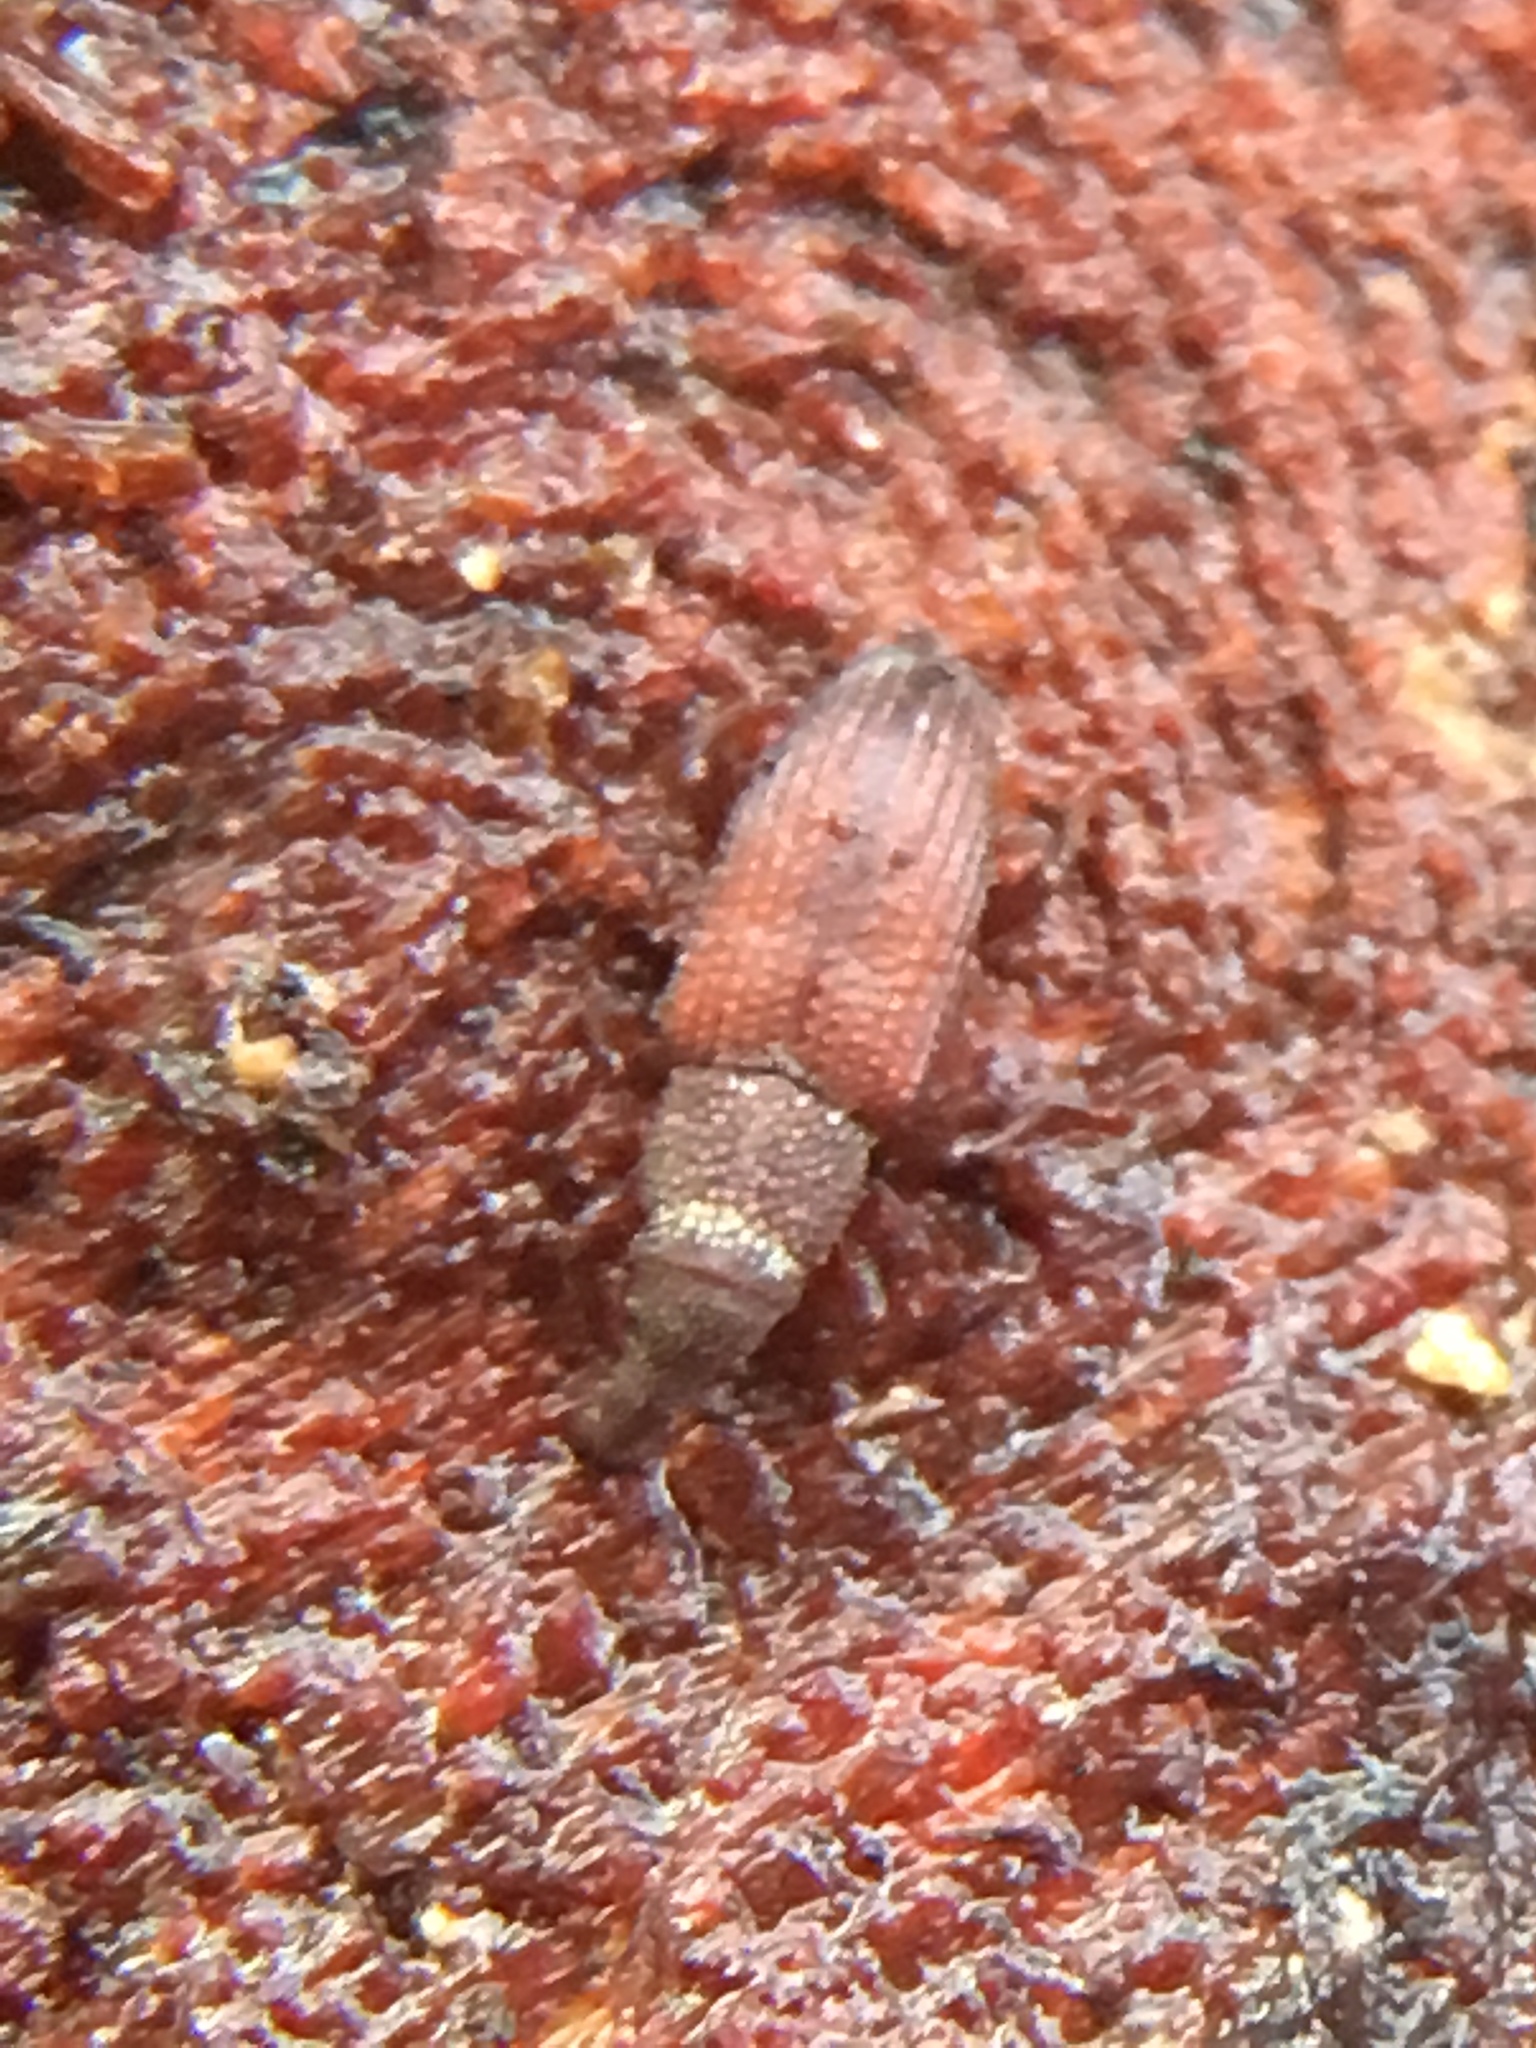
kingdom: Animalia
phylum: Arthropoda
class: Insecta
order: Coleoptera
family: Dryophthoridae
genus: Dryophthorus
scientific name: Dryophthorus corticalis
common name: Wood-boring weevil
